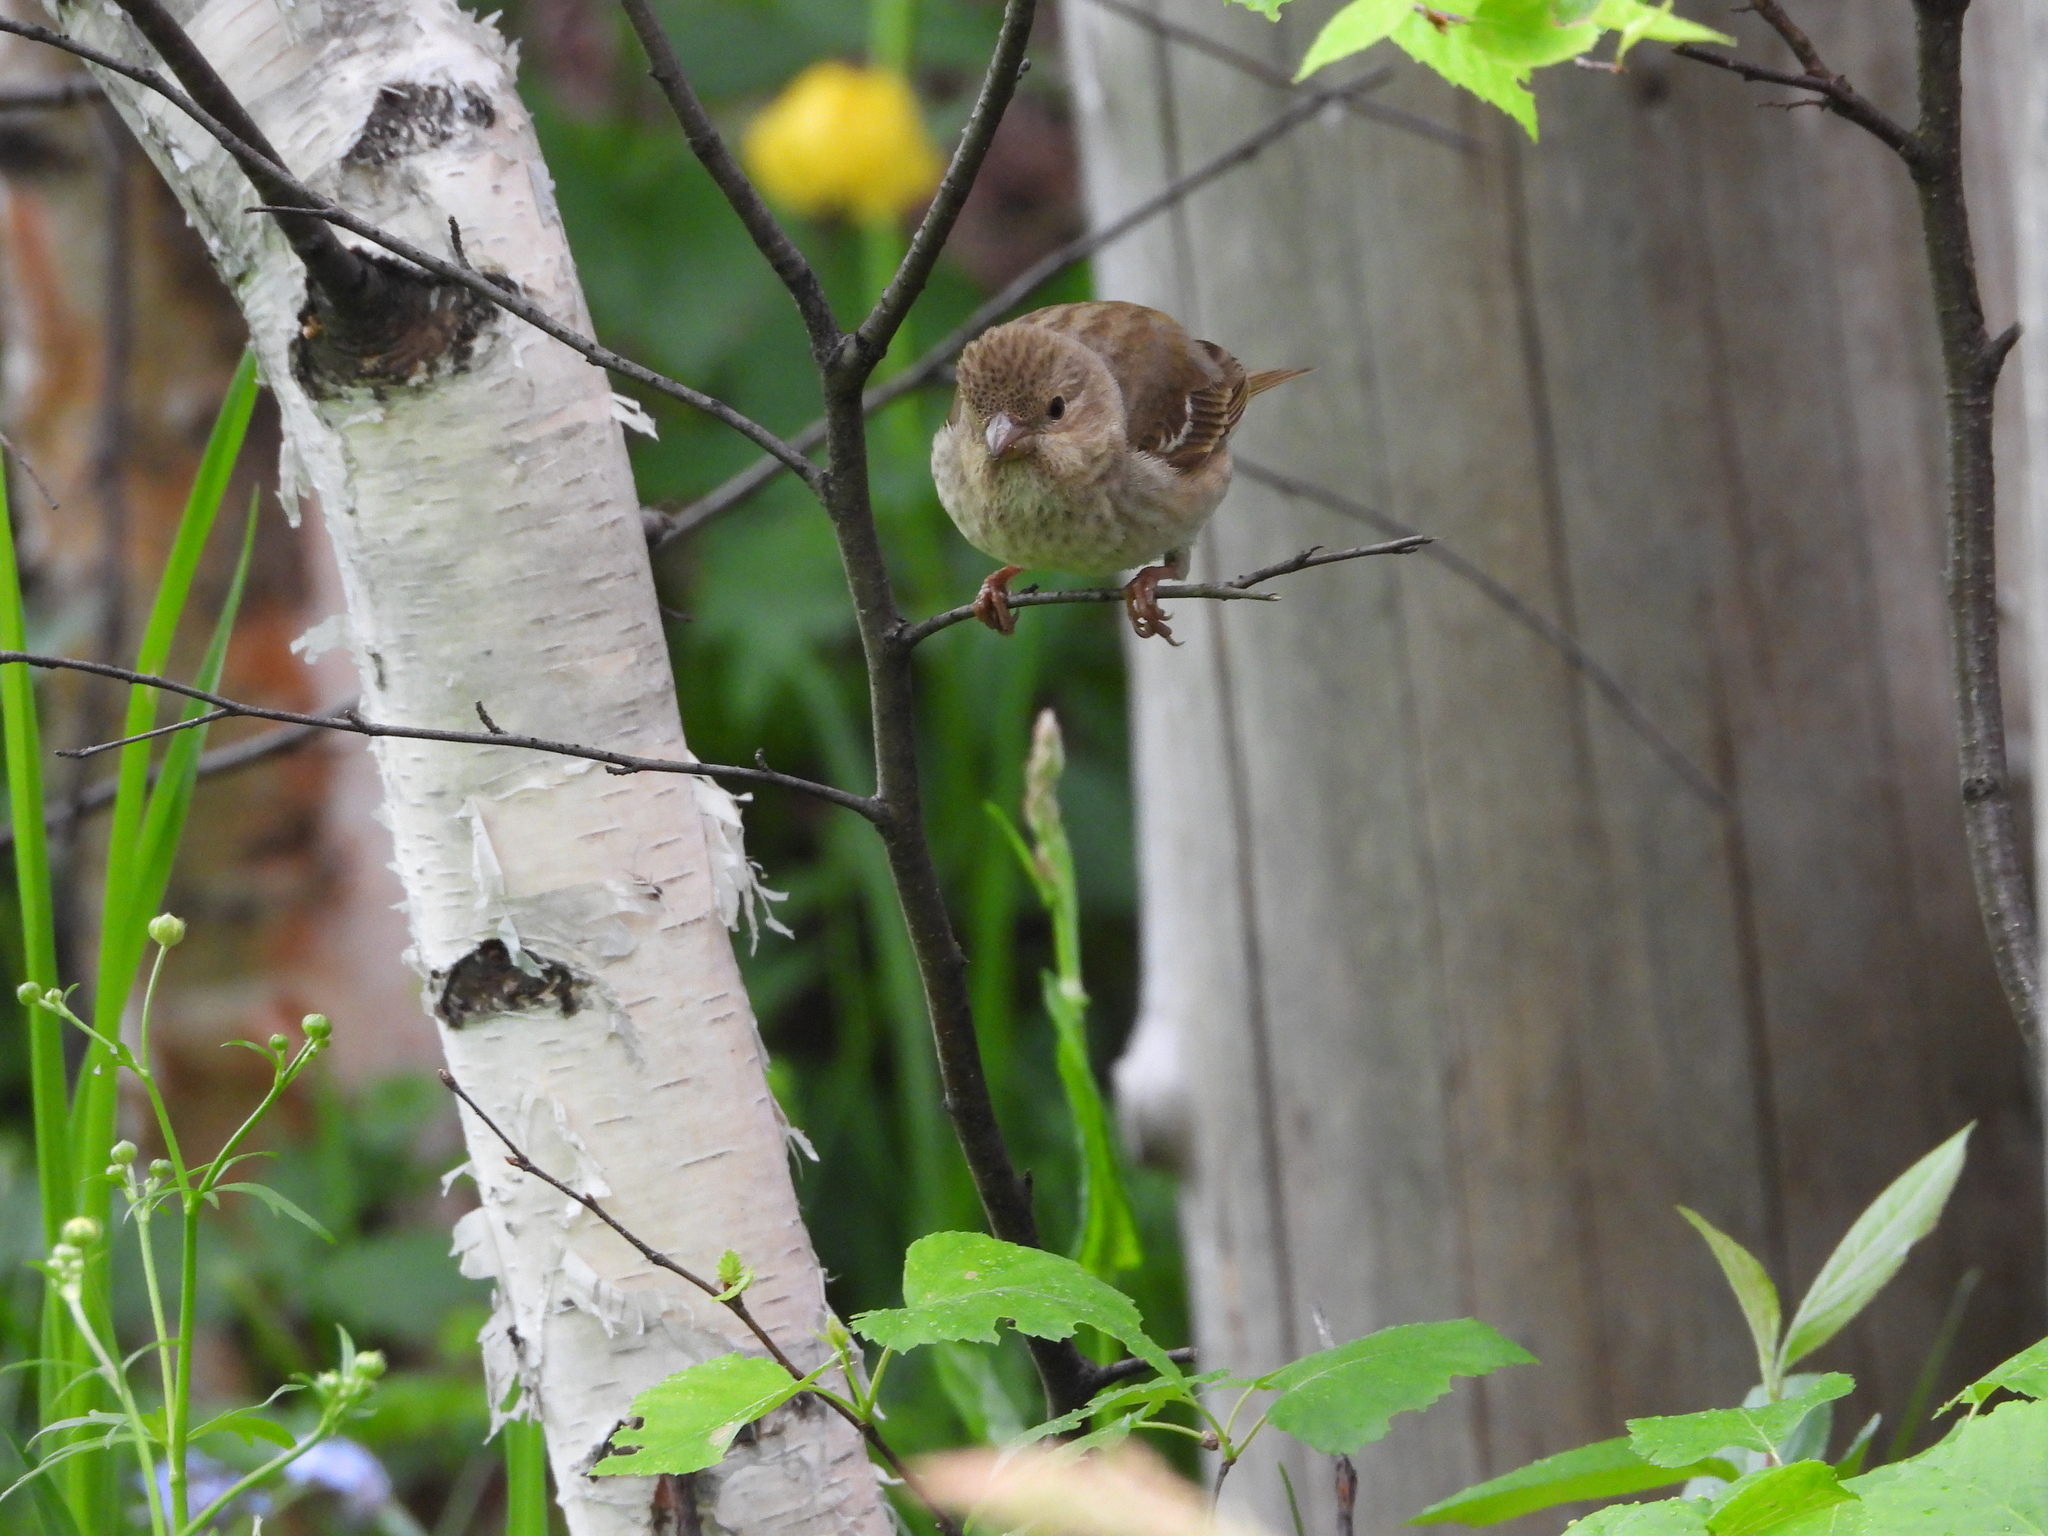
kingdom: Animalia
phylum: Chordata
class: Aves
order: Passeriformes
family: Fringillidae
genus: Carpodacus
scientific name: Carpodacus erythrinus
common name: Common rosefinch
